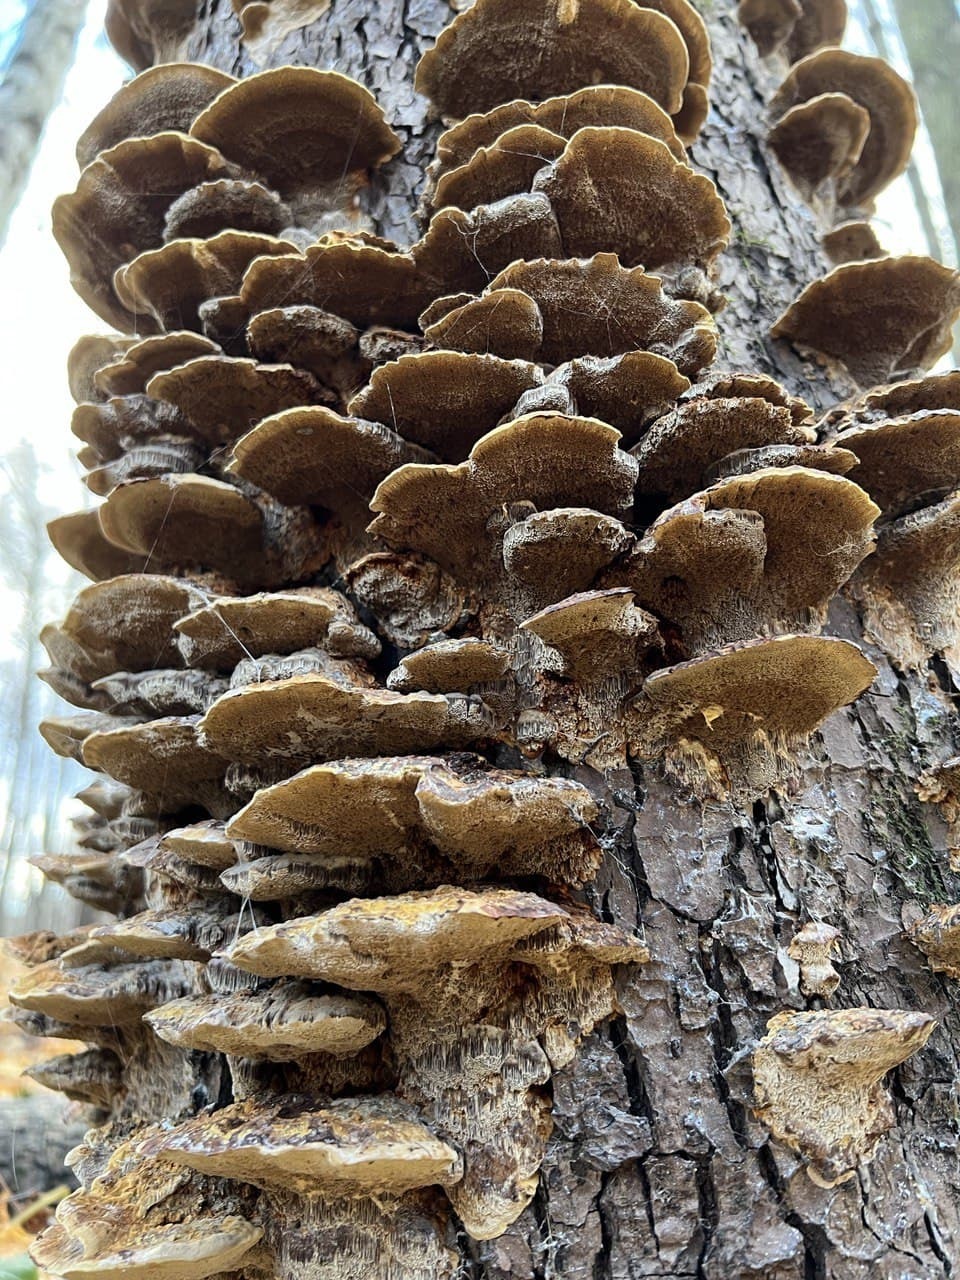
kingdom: Fungi
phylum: Basidiomycota
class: Agaricomycetes
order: Hymenochaetales
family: Hymenochaetaceae
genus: Xanthoporia
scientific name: Xanthoporia radiata
